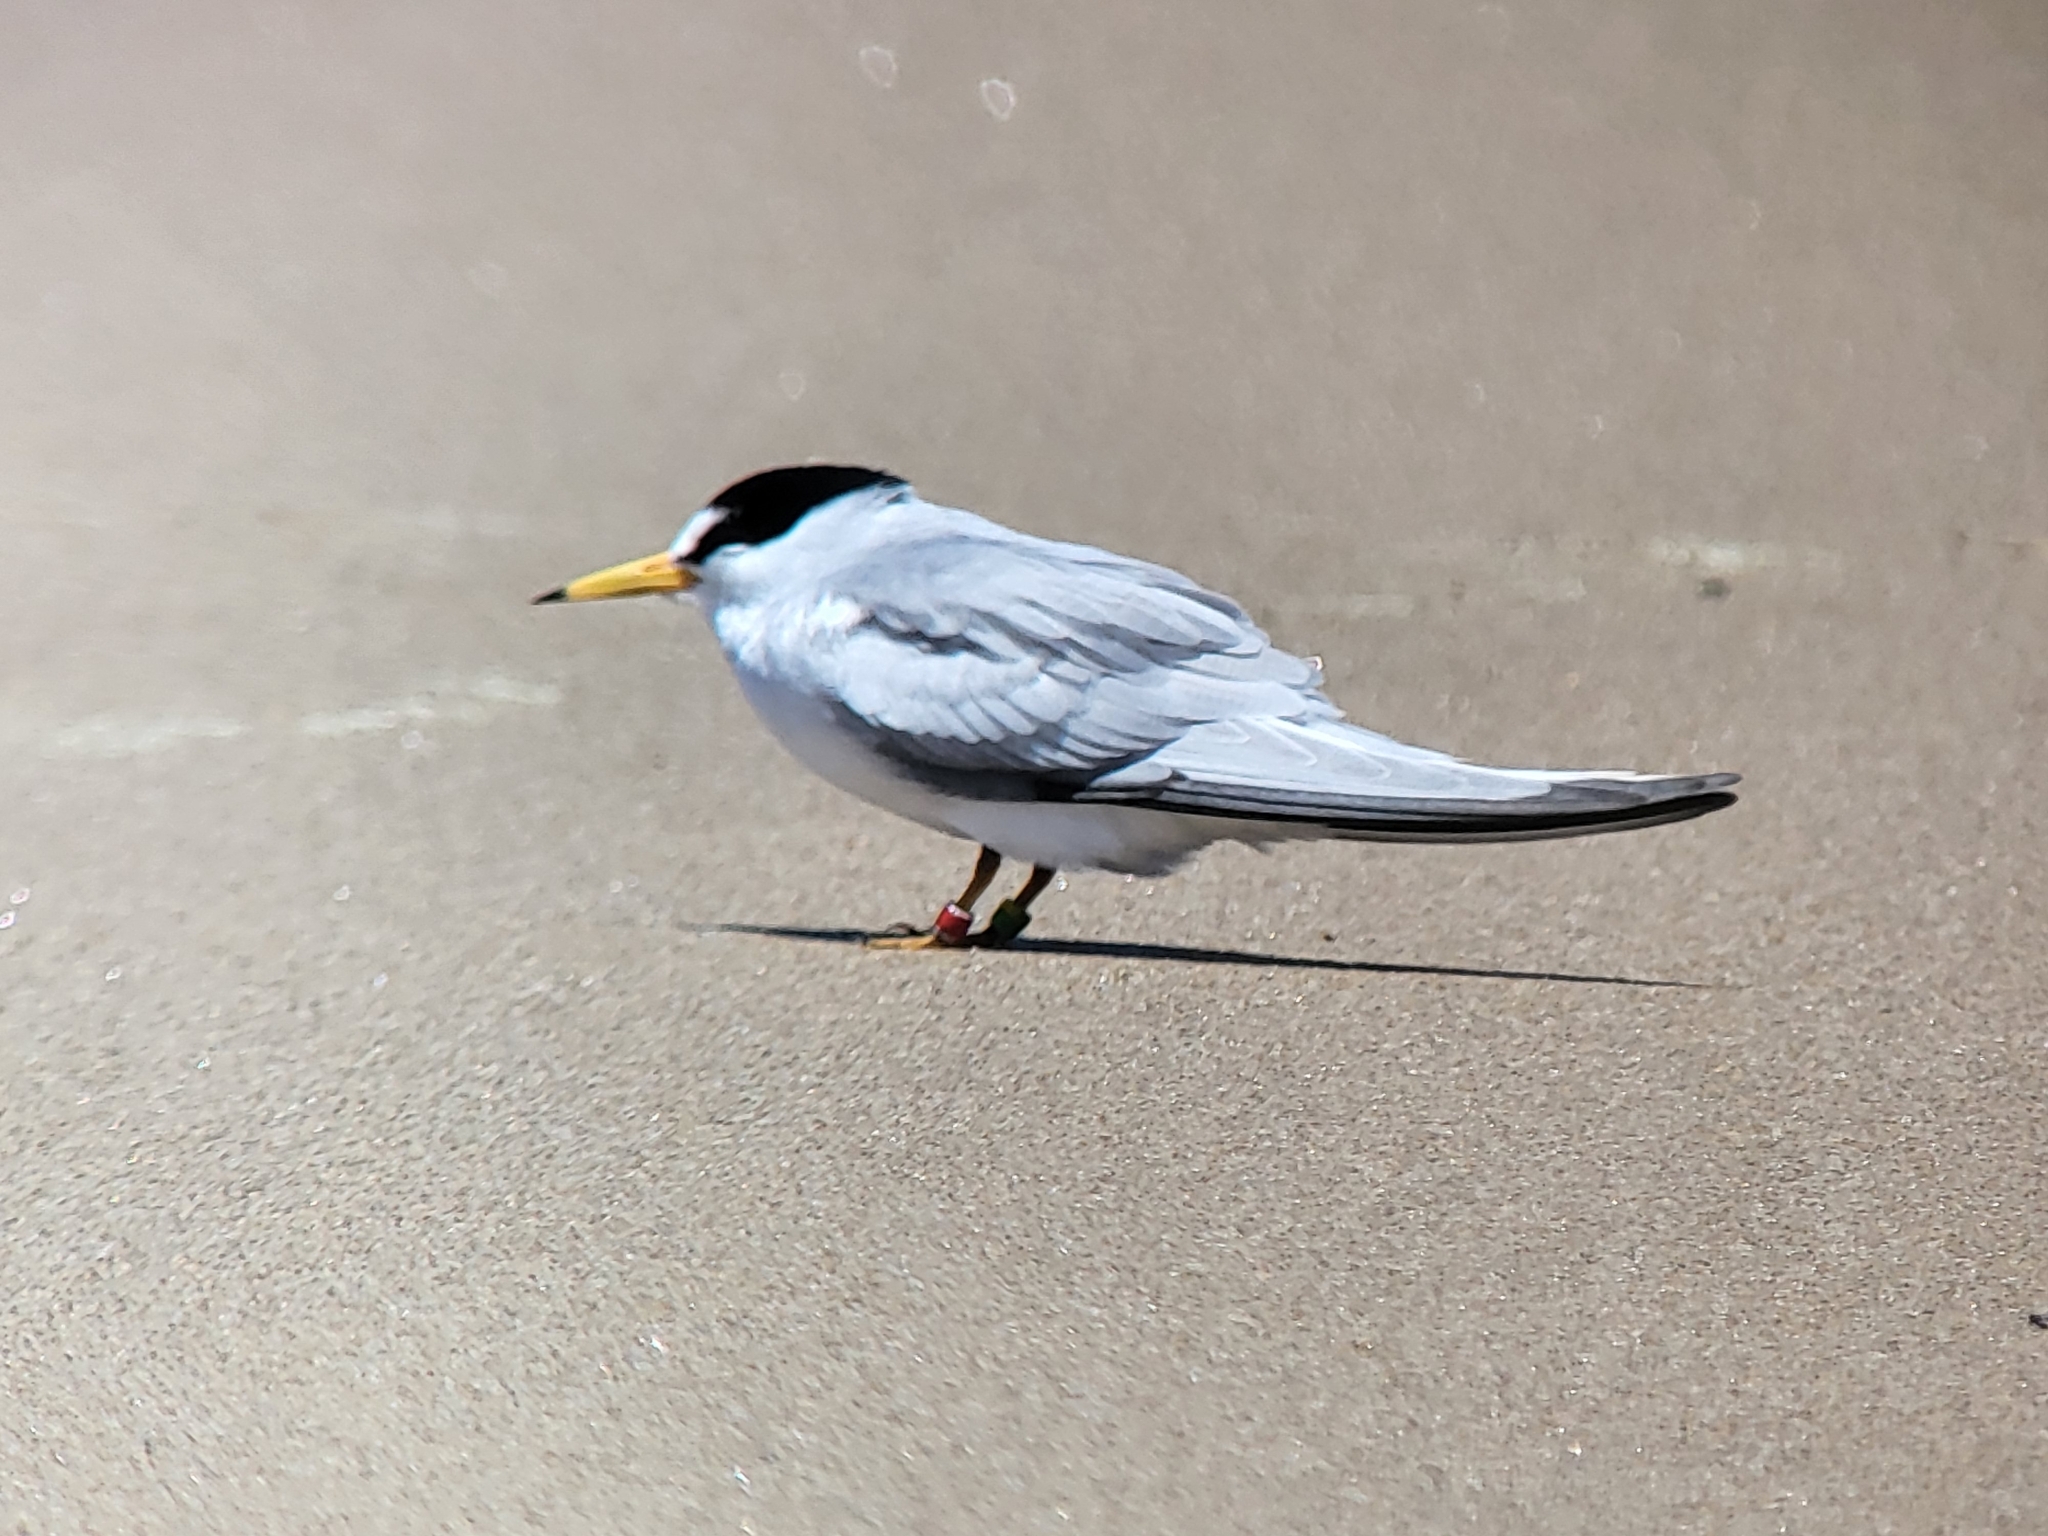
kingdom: Animalia
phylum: Chordata
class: Aves
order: Charadriiformes
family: Laridae
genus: Sternula
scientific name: Sternula antillarum
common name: Least tern
